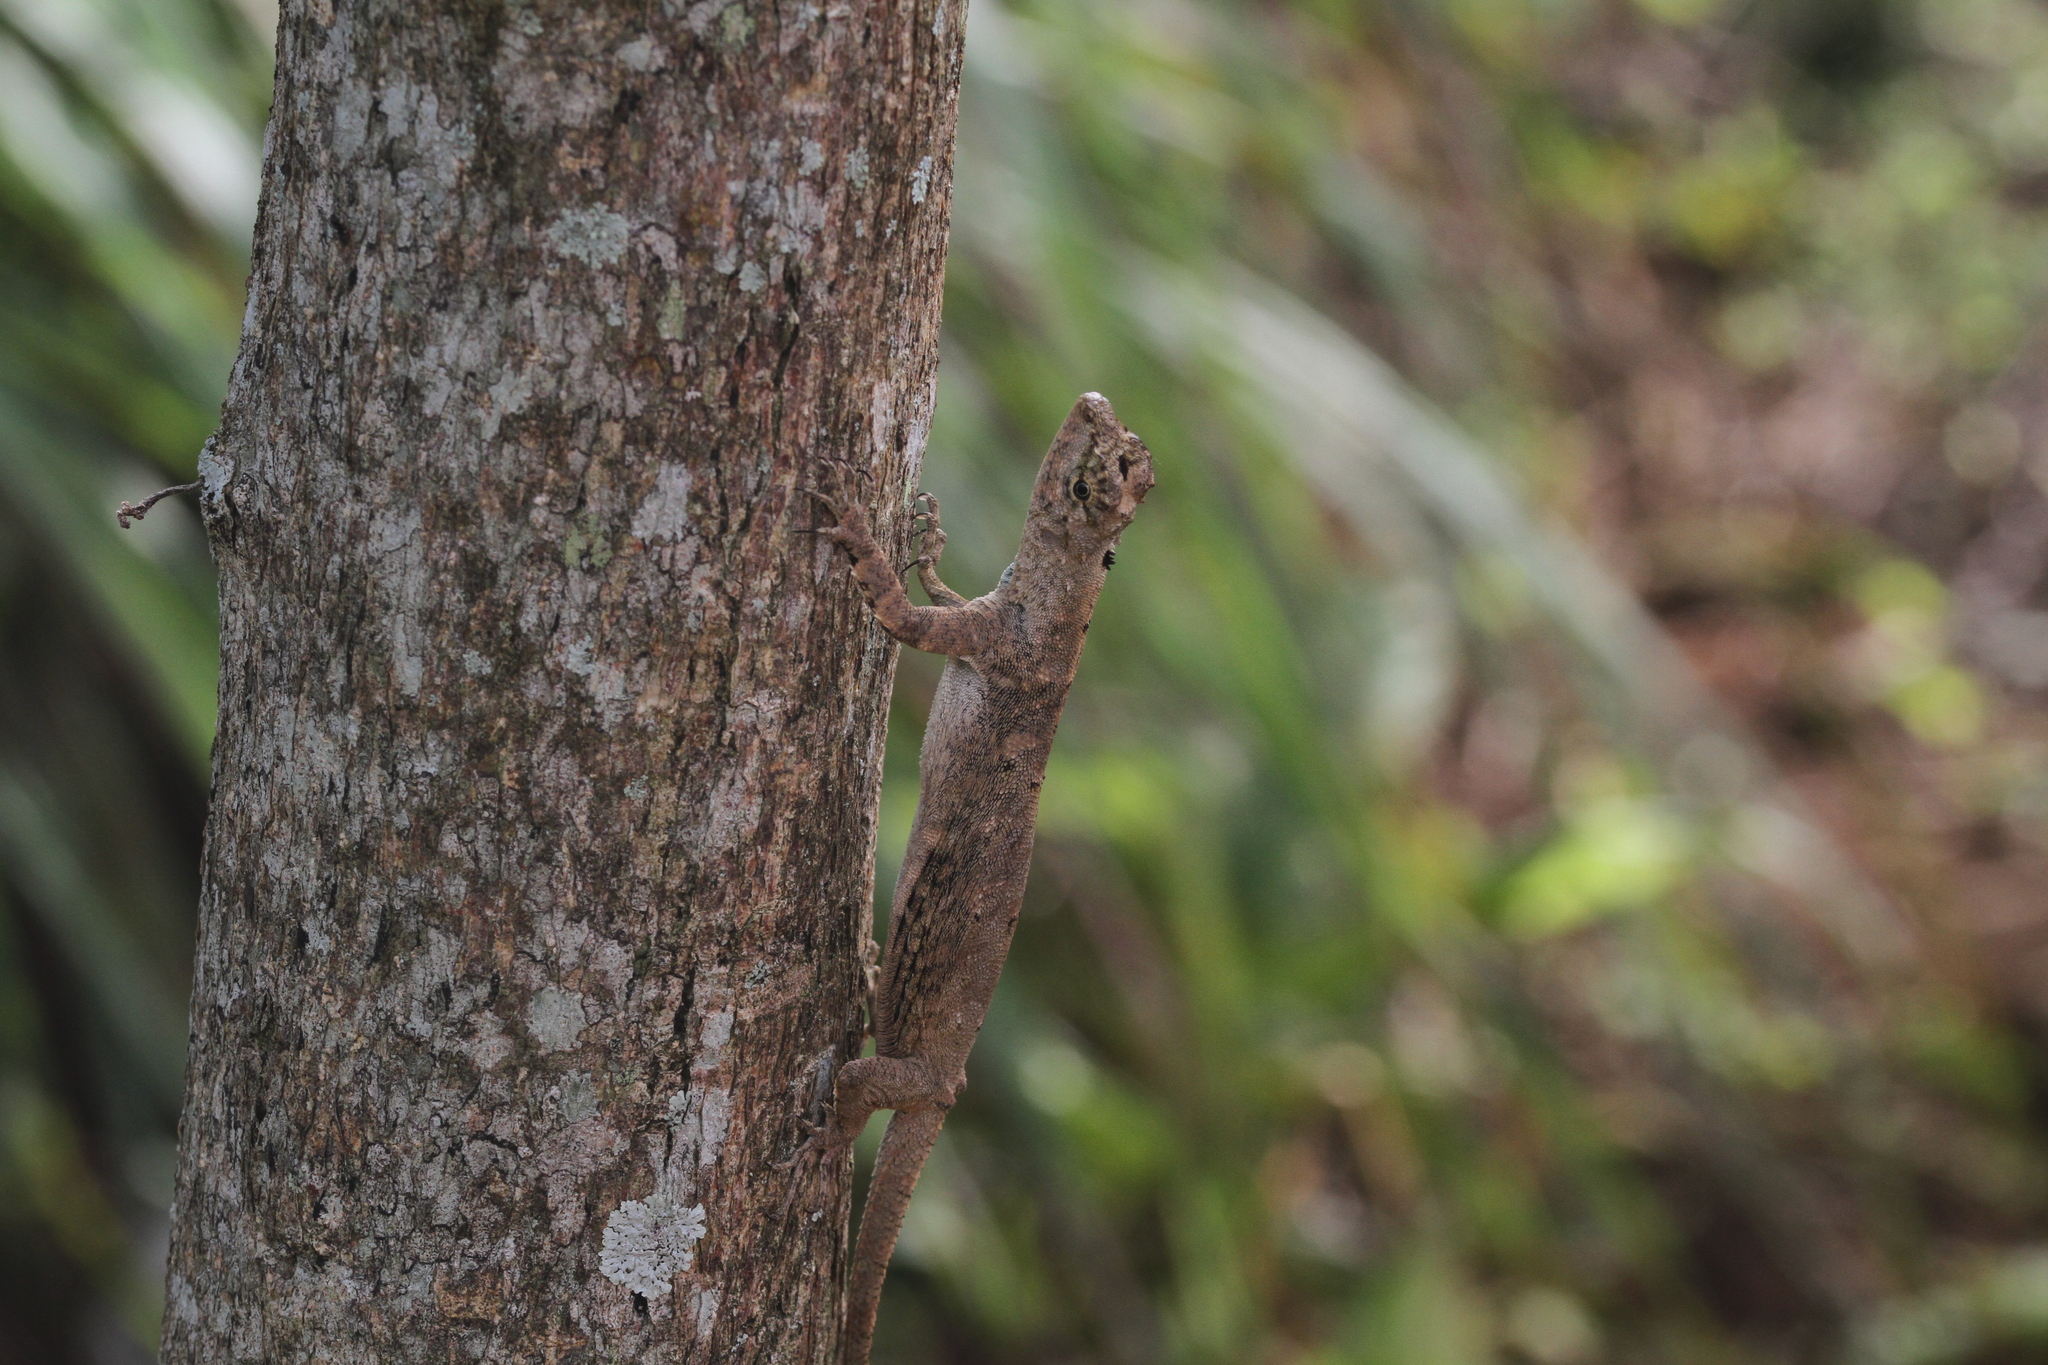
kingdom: Animalia
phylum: Chordata
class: Squamata
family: Agamidae
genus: Draco
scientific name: Draco sumatranus
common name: Common gliding lizard
